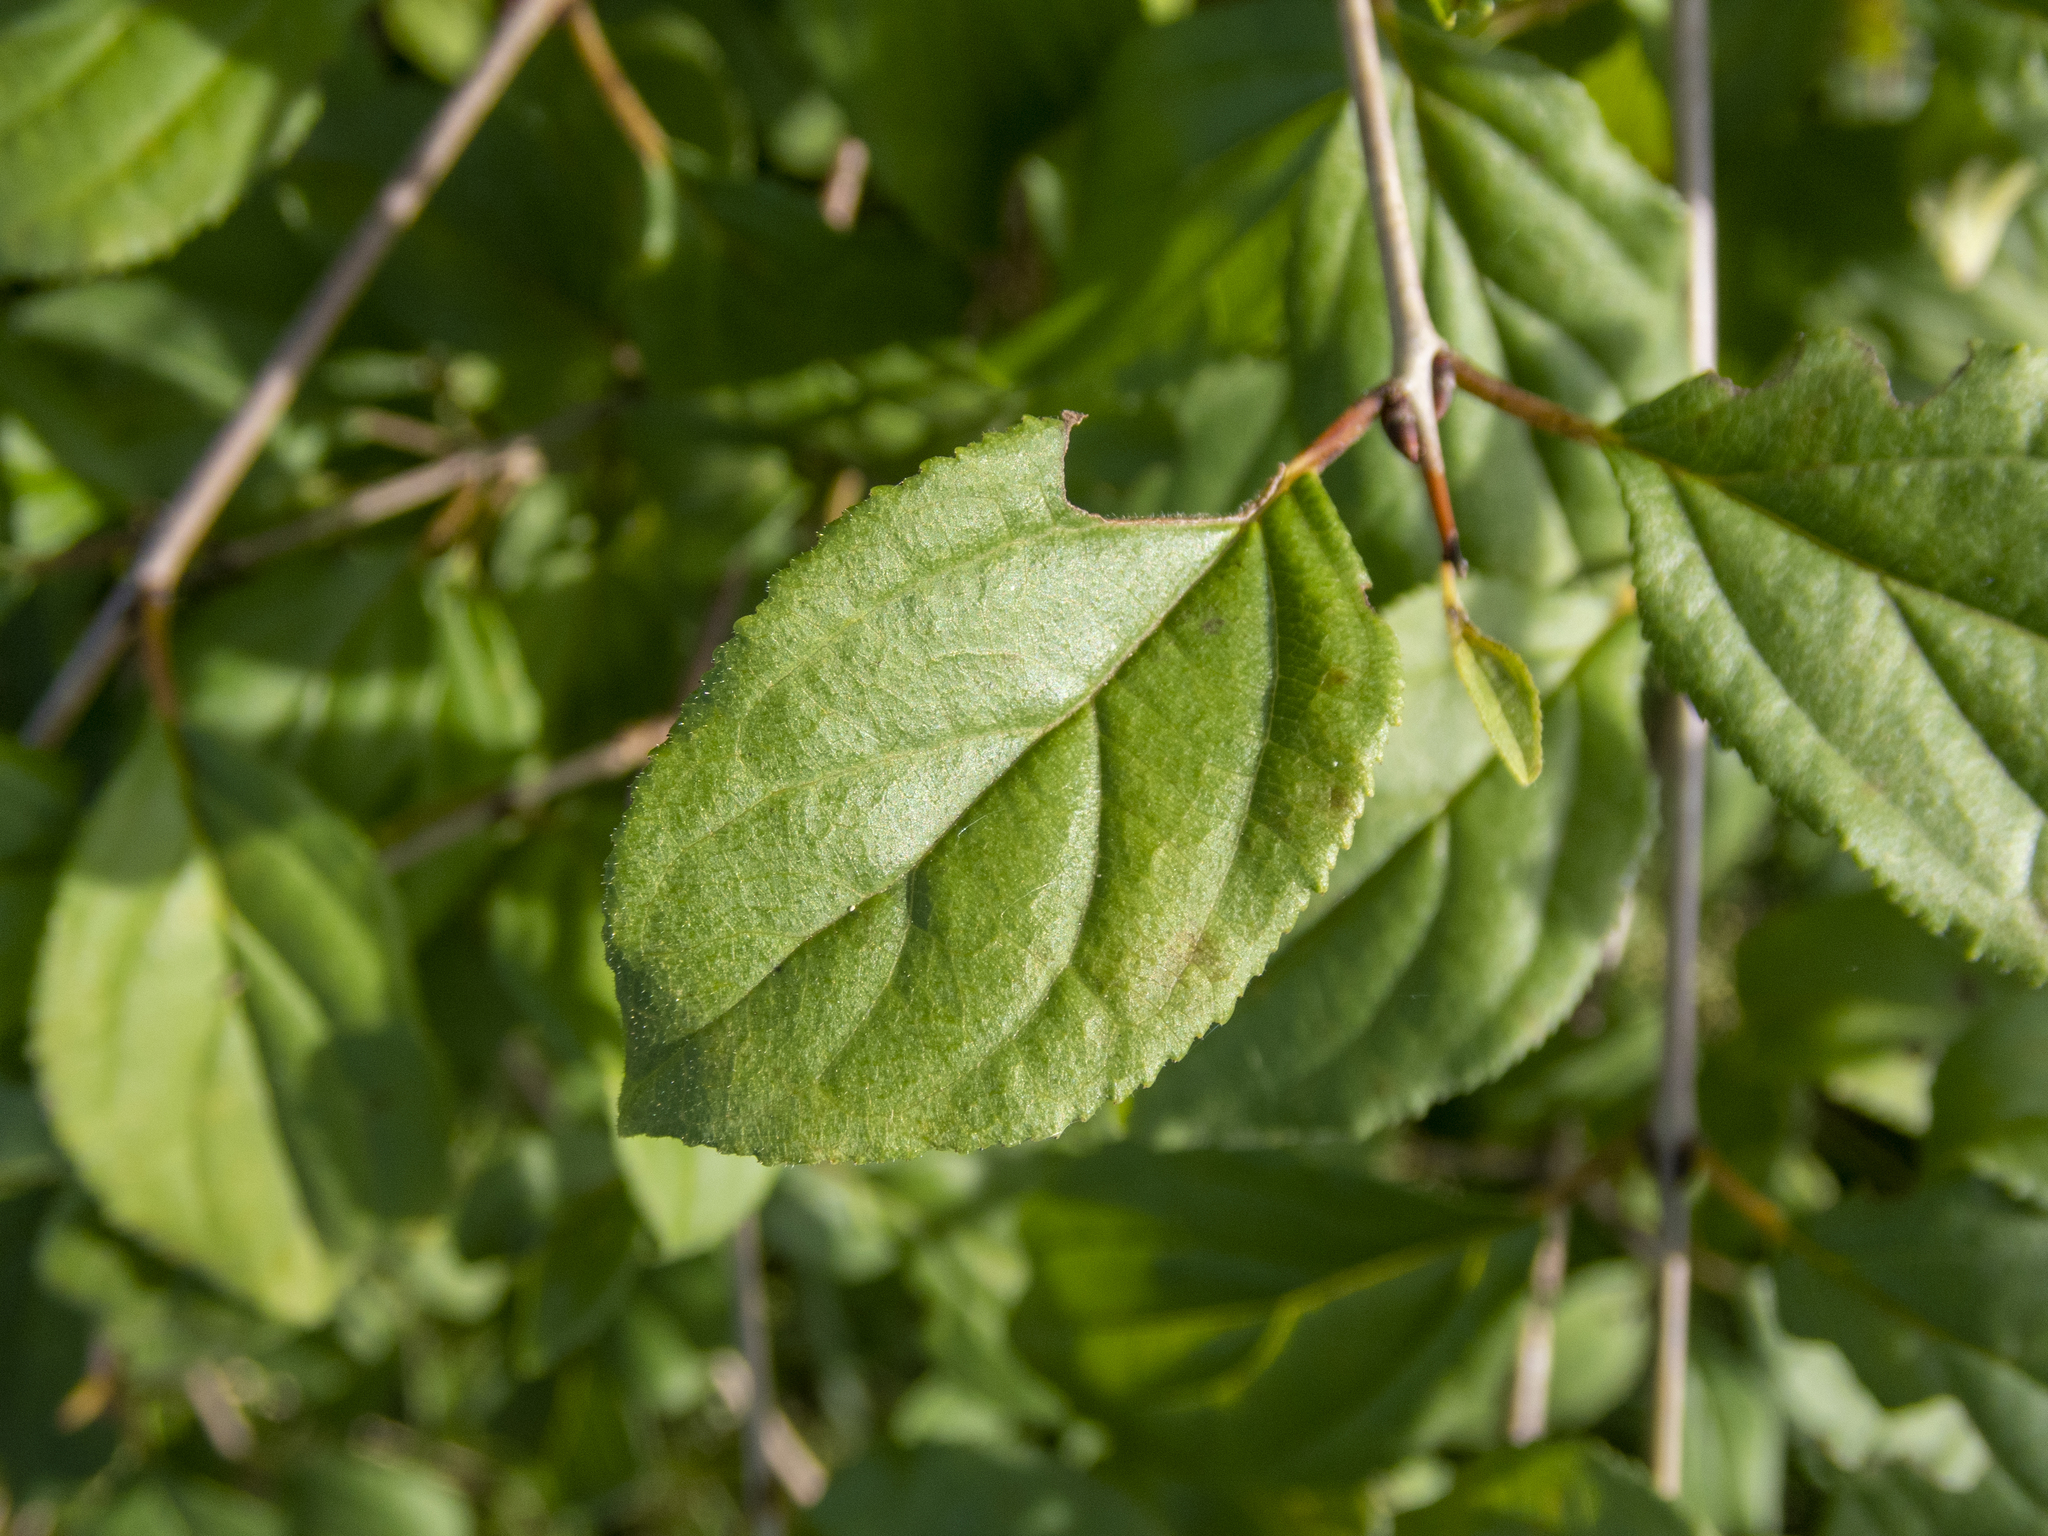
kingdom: Plantae
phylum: Tracheophyta
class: Magnoliopsida
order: Rosales
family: Rhamnaceae
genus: Rhamnus
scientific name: Rhamnus cathartica
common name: Common buckthorn
